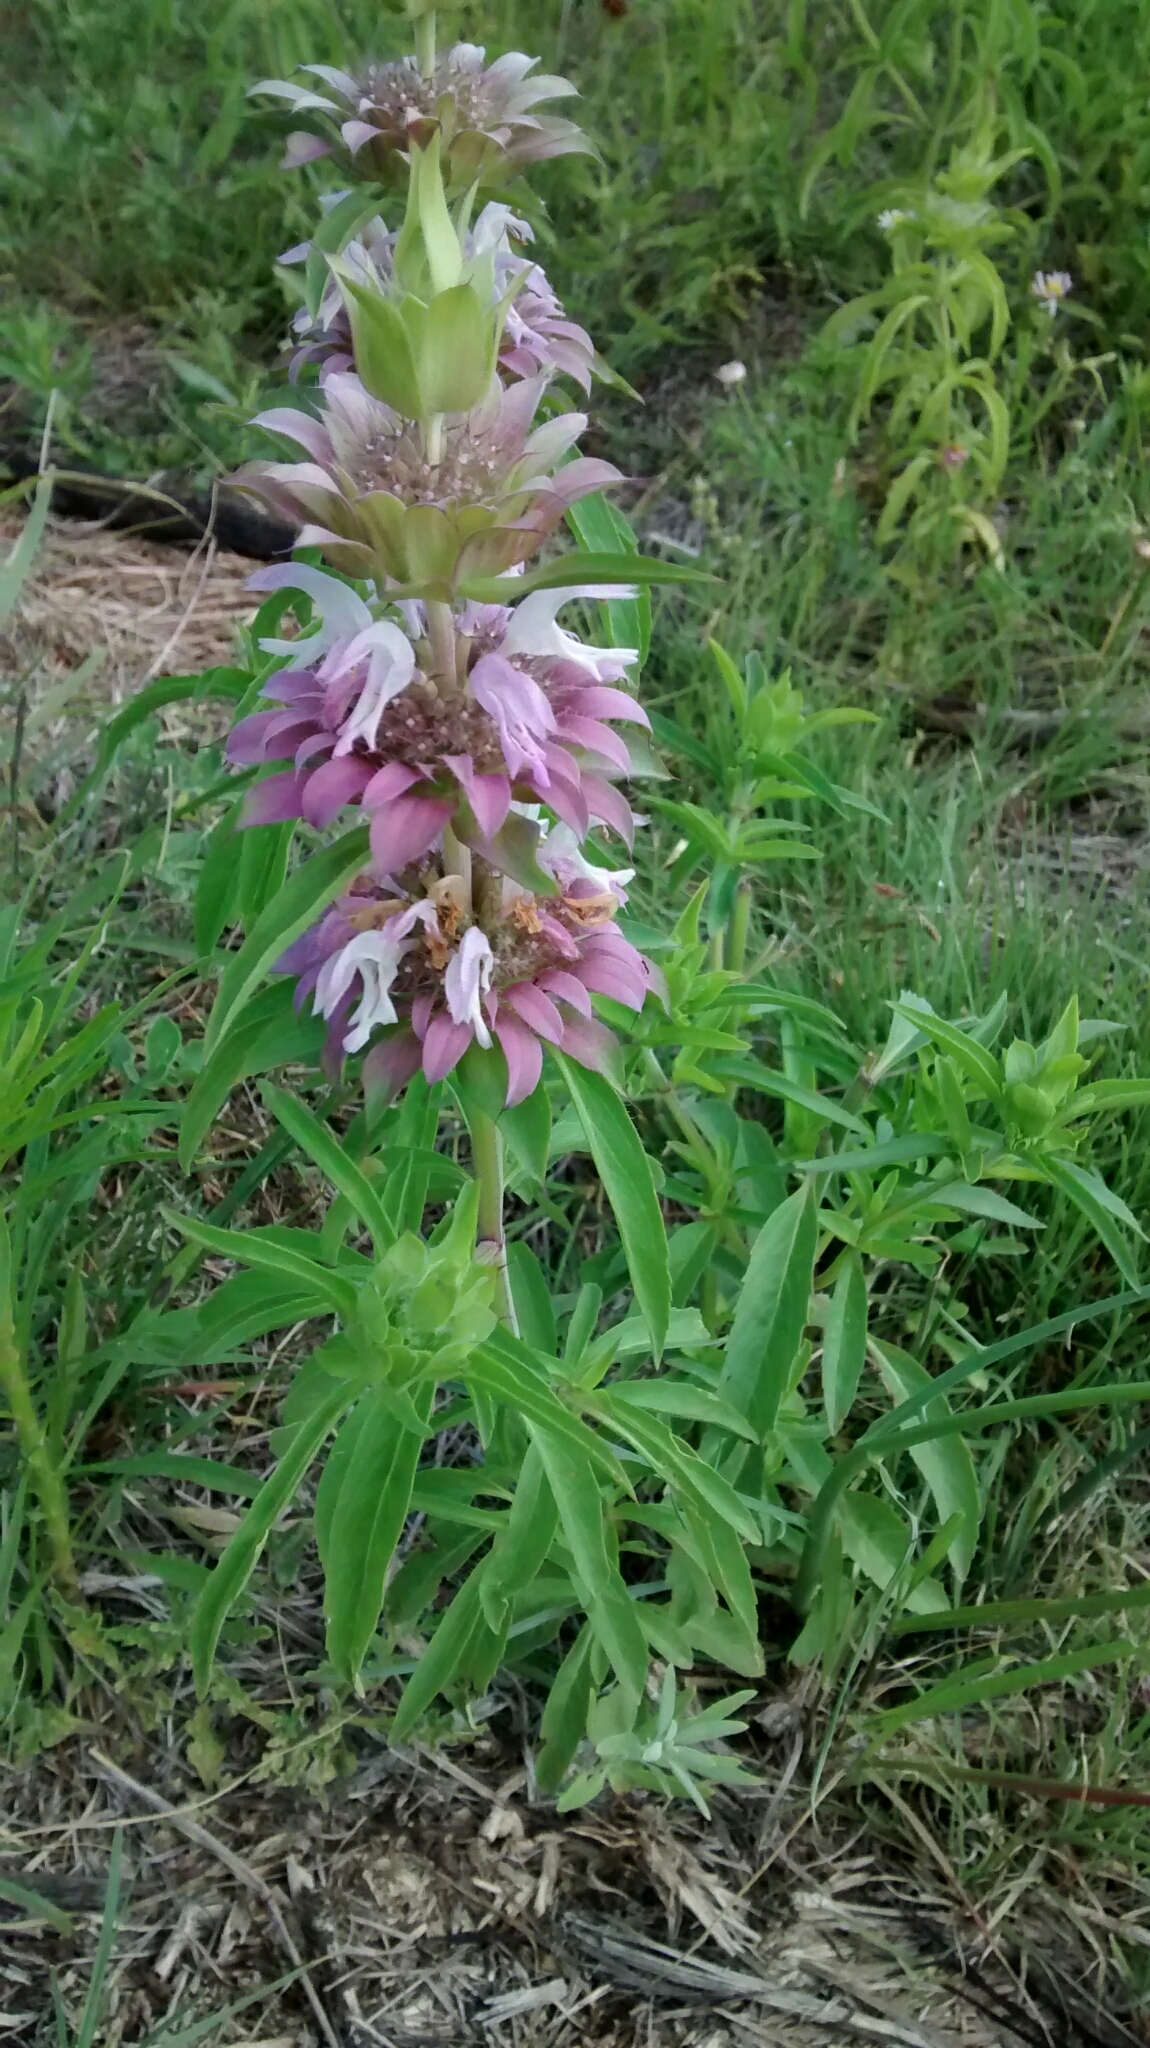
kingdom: Plantae
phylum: Tracheophyta
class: Magnoliopsida
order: Lamiales
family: Lamiaceae
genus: Monarda
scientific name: Monarda citriodora
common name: Lemon beebalm
